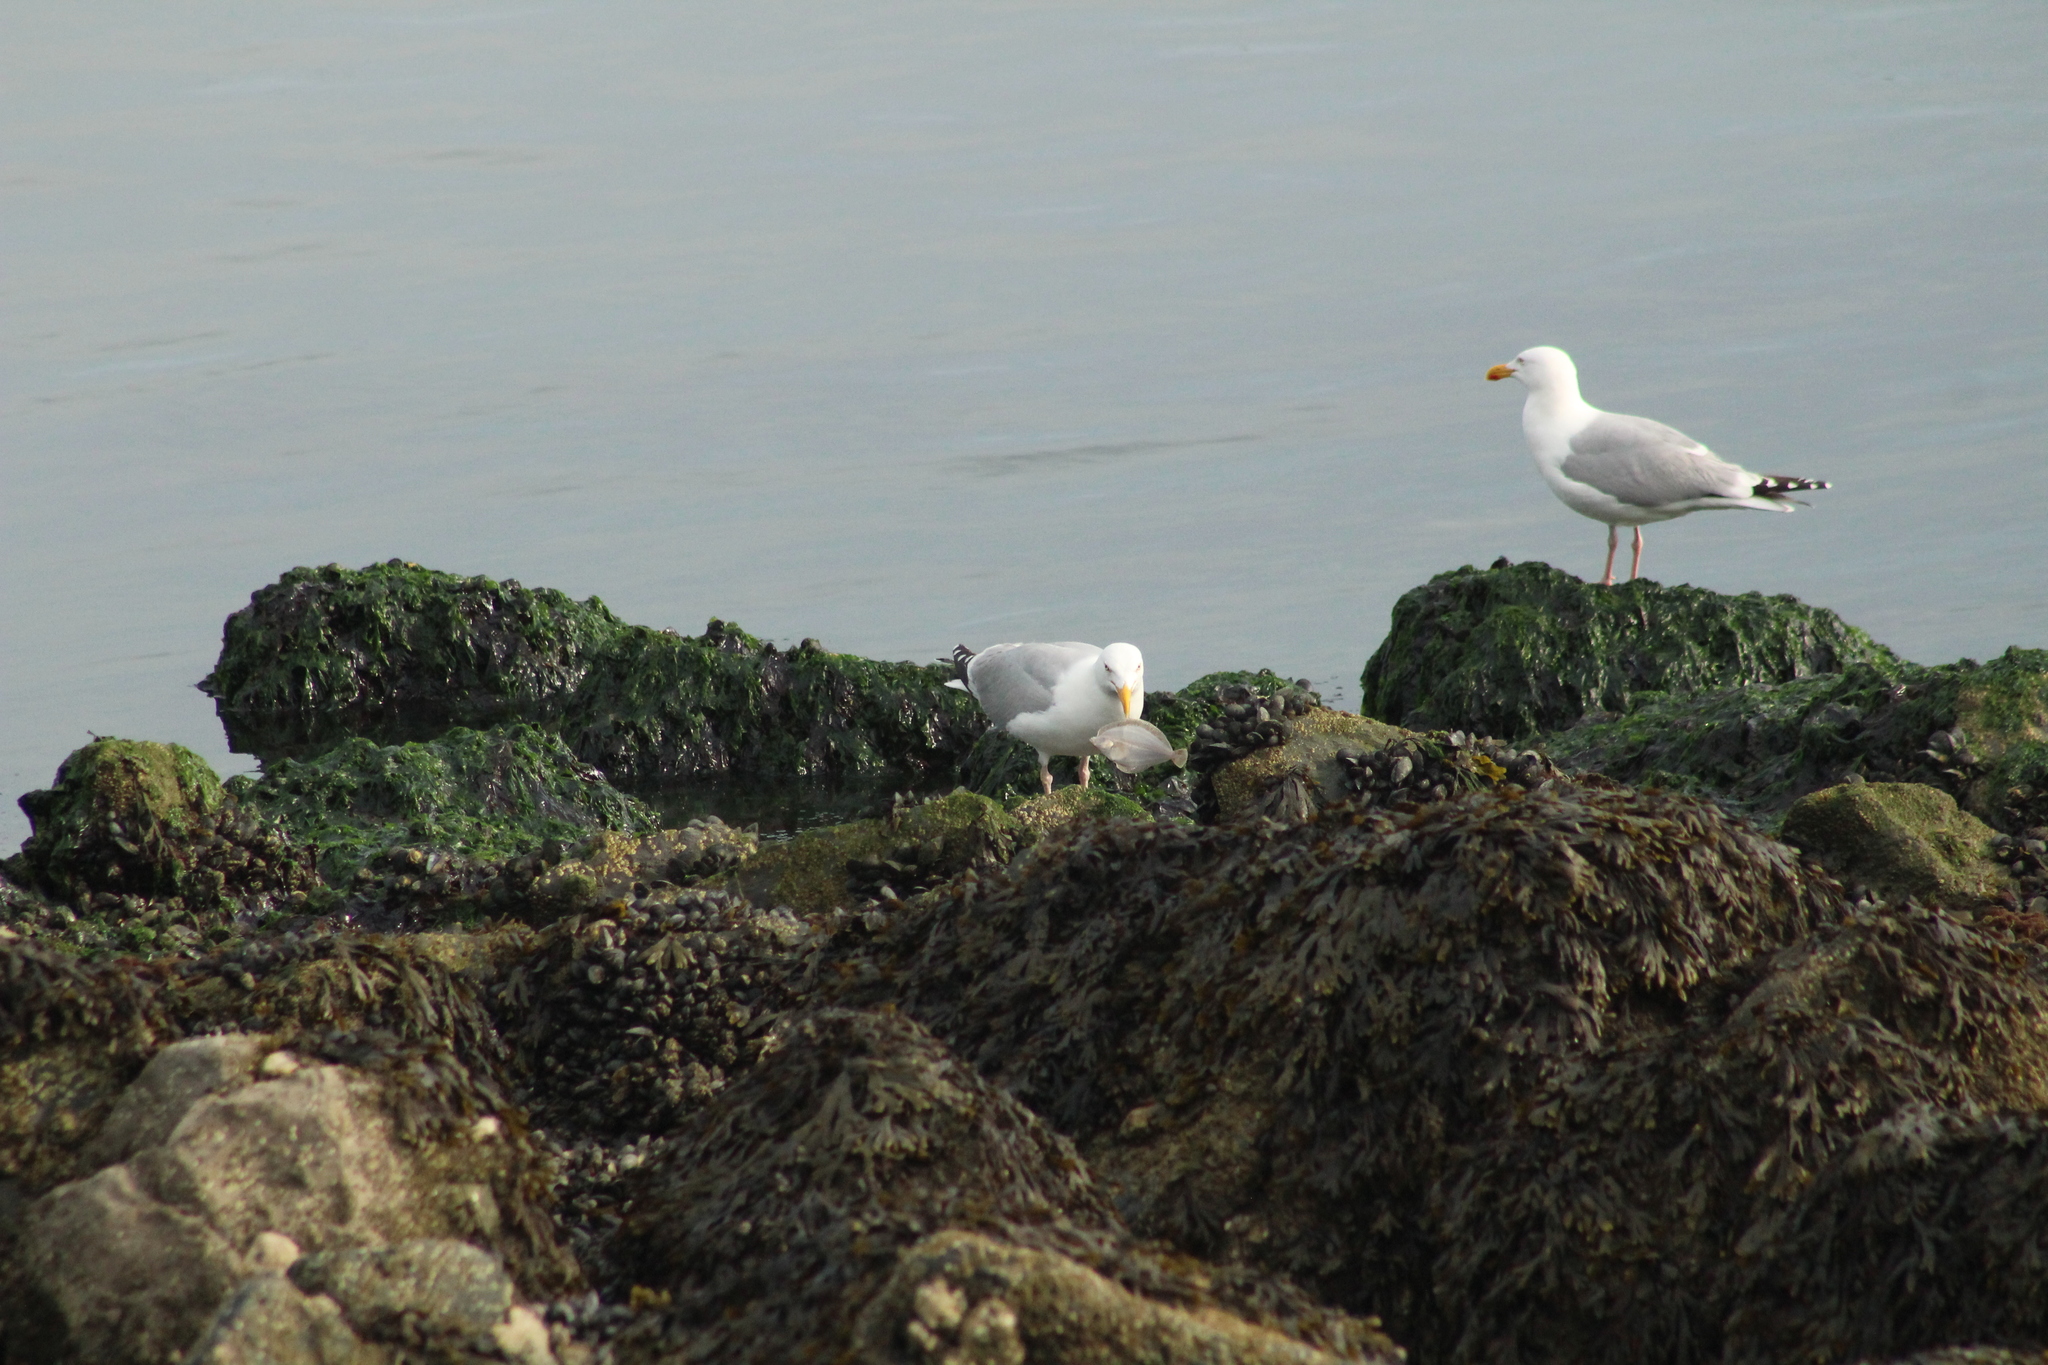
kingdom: Animalia
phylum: Chordata
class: Aves
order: Charadriiformes
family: Laridae
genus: Larus
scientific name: Larus argentatus
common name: Herring gull
